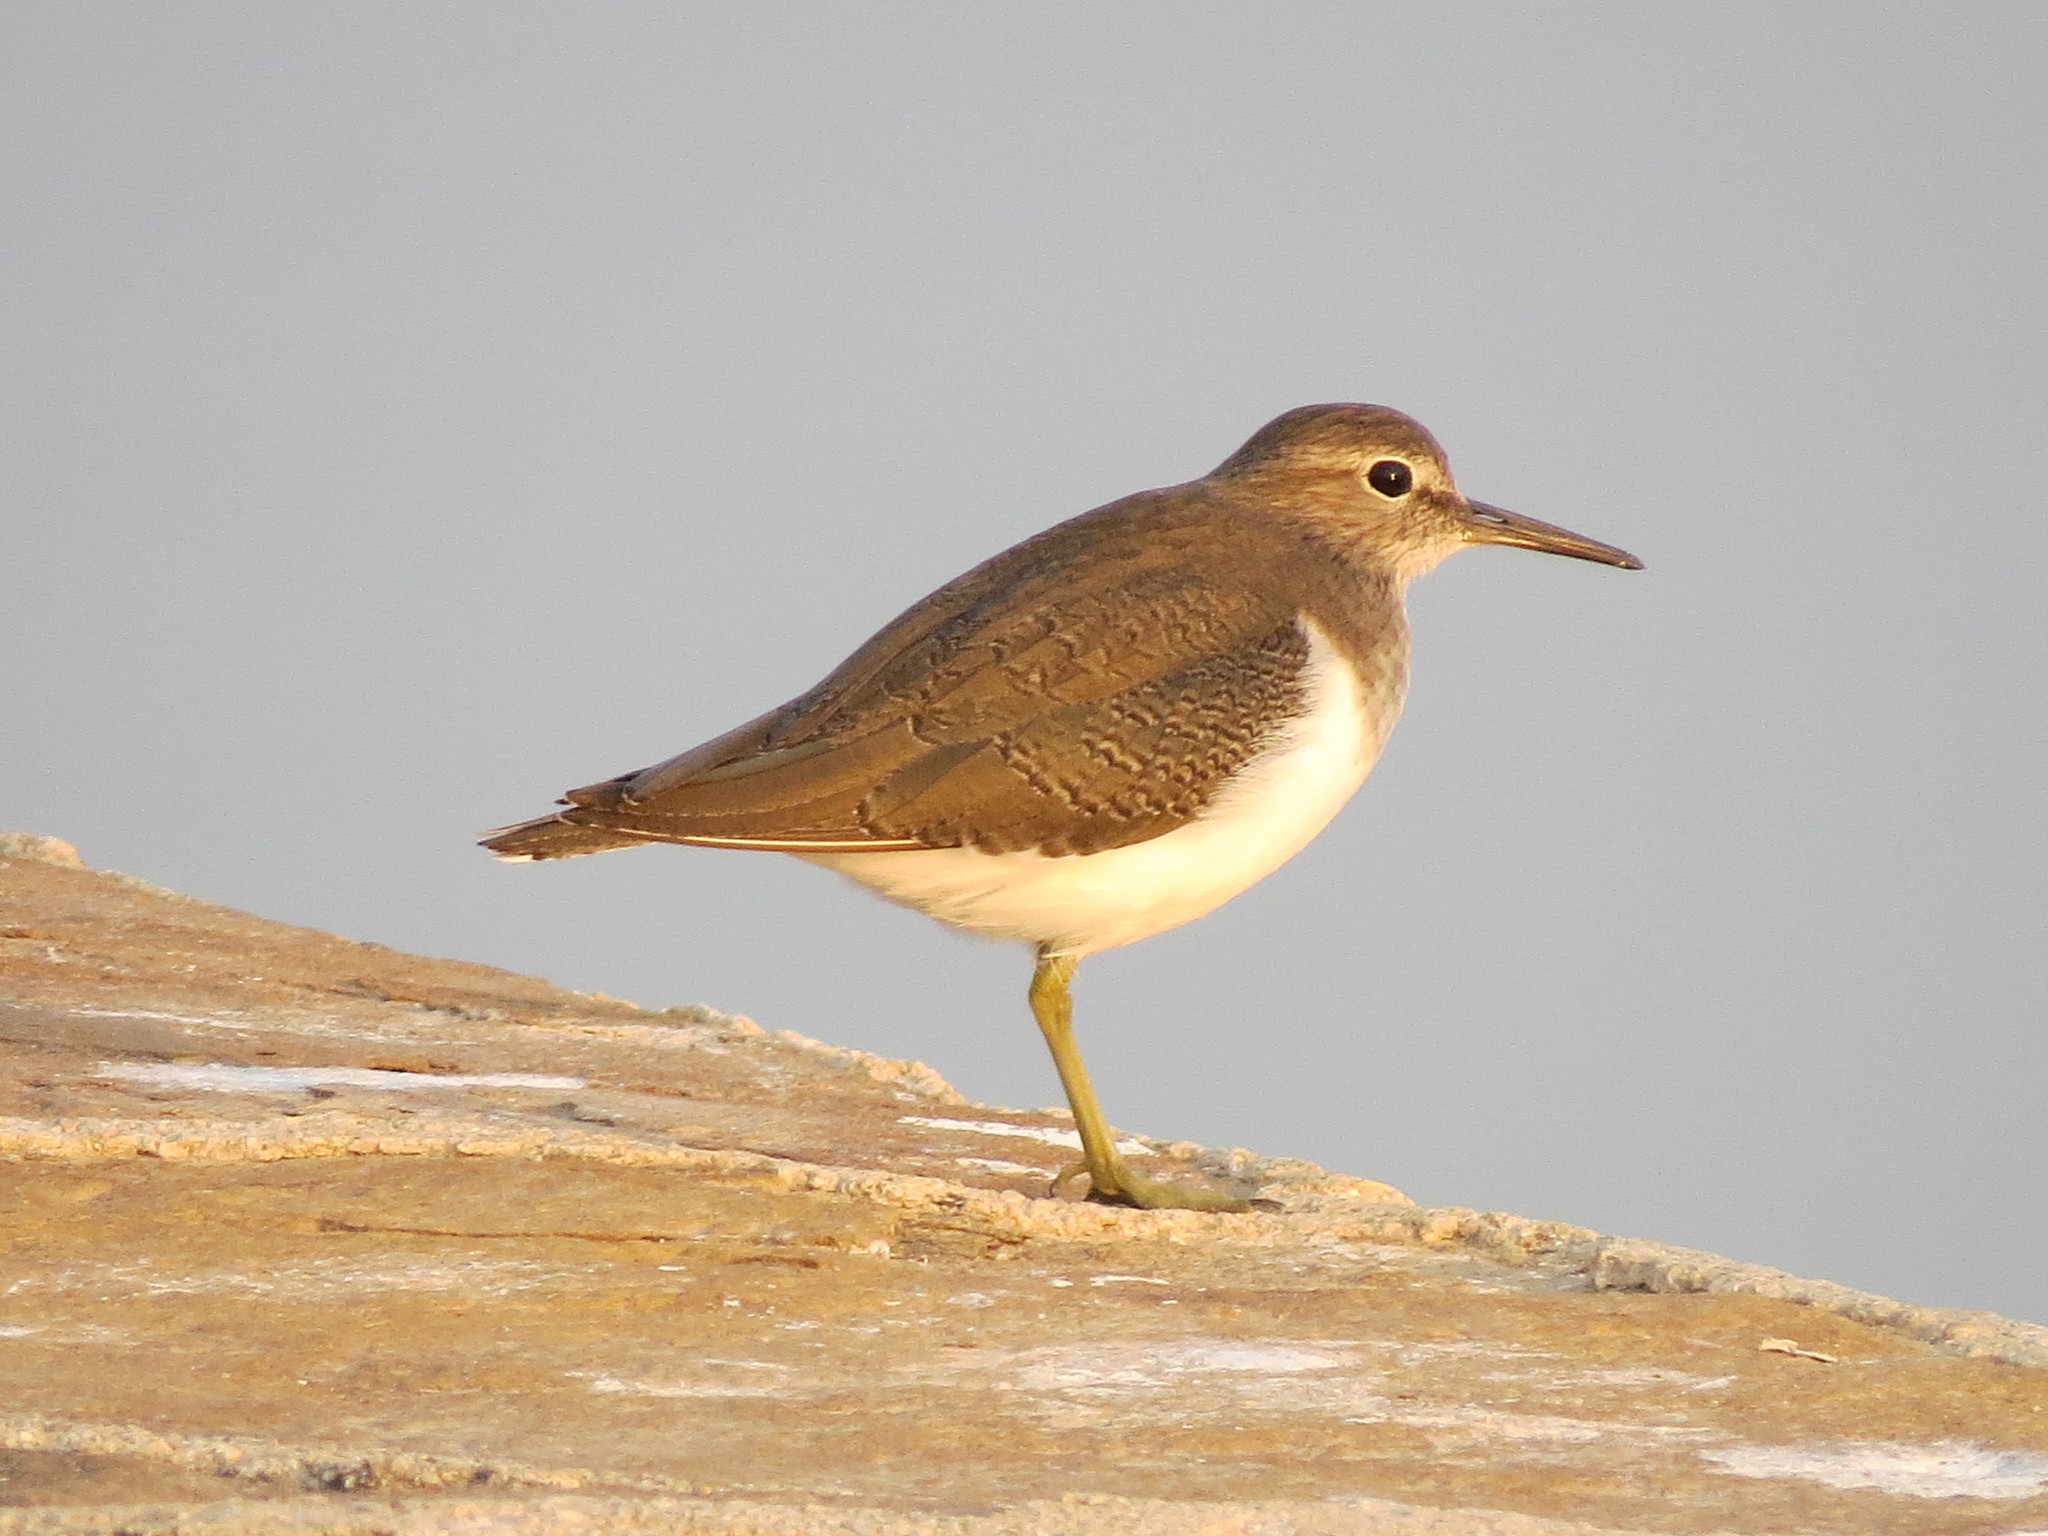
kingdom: Animalia
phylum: Chordata
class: Aves
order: Charadriiformes
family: Scolopacidae
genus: Actitis
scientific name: Actitis hypoleucos
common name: Common sandpiper
